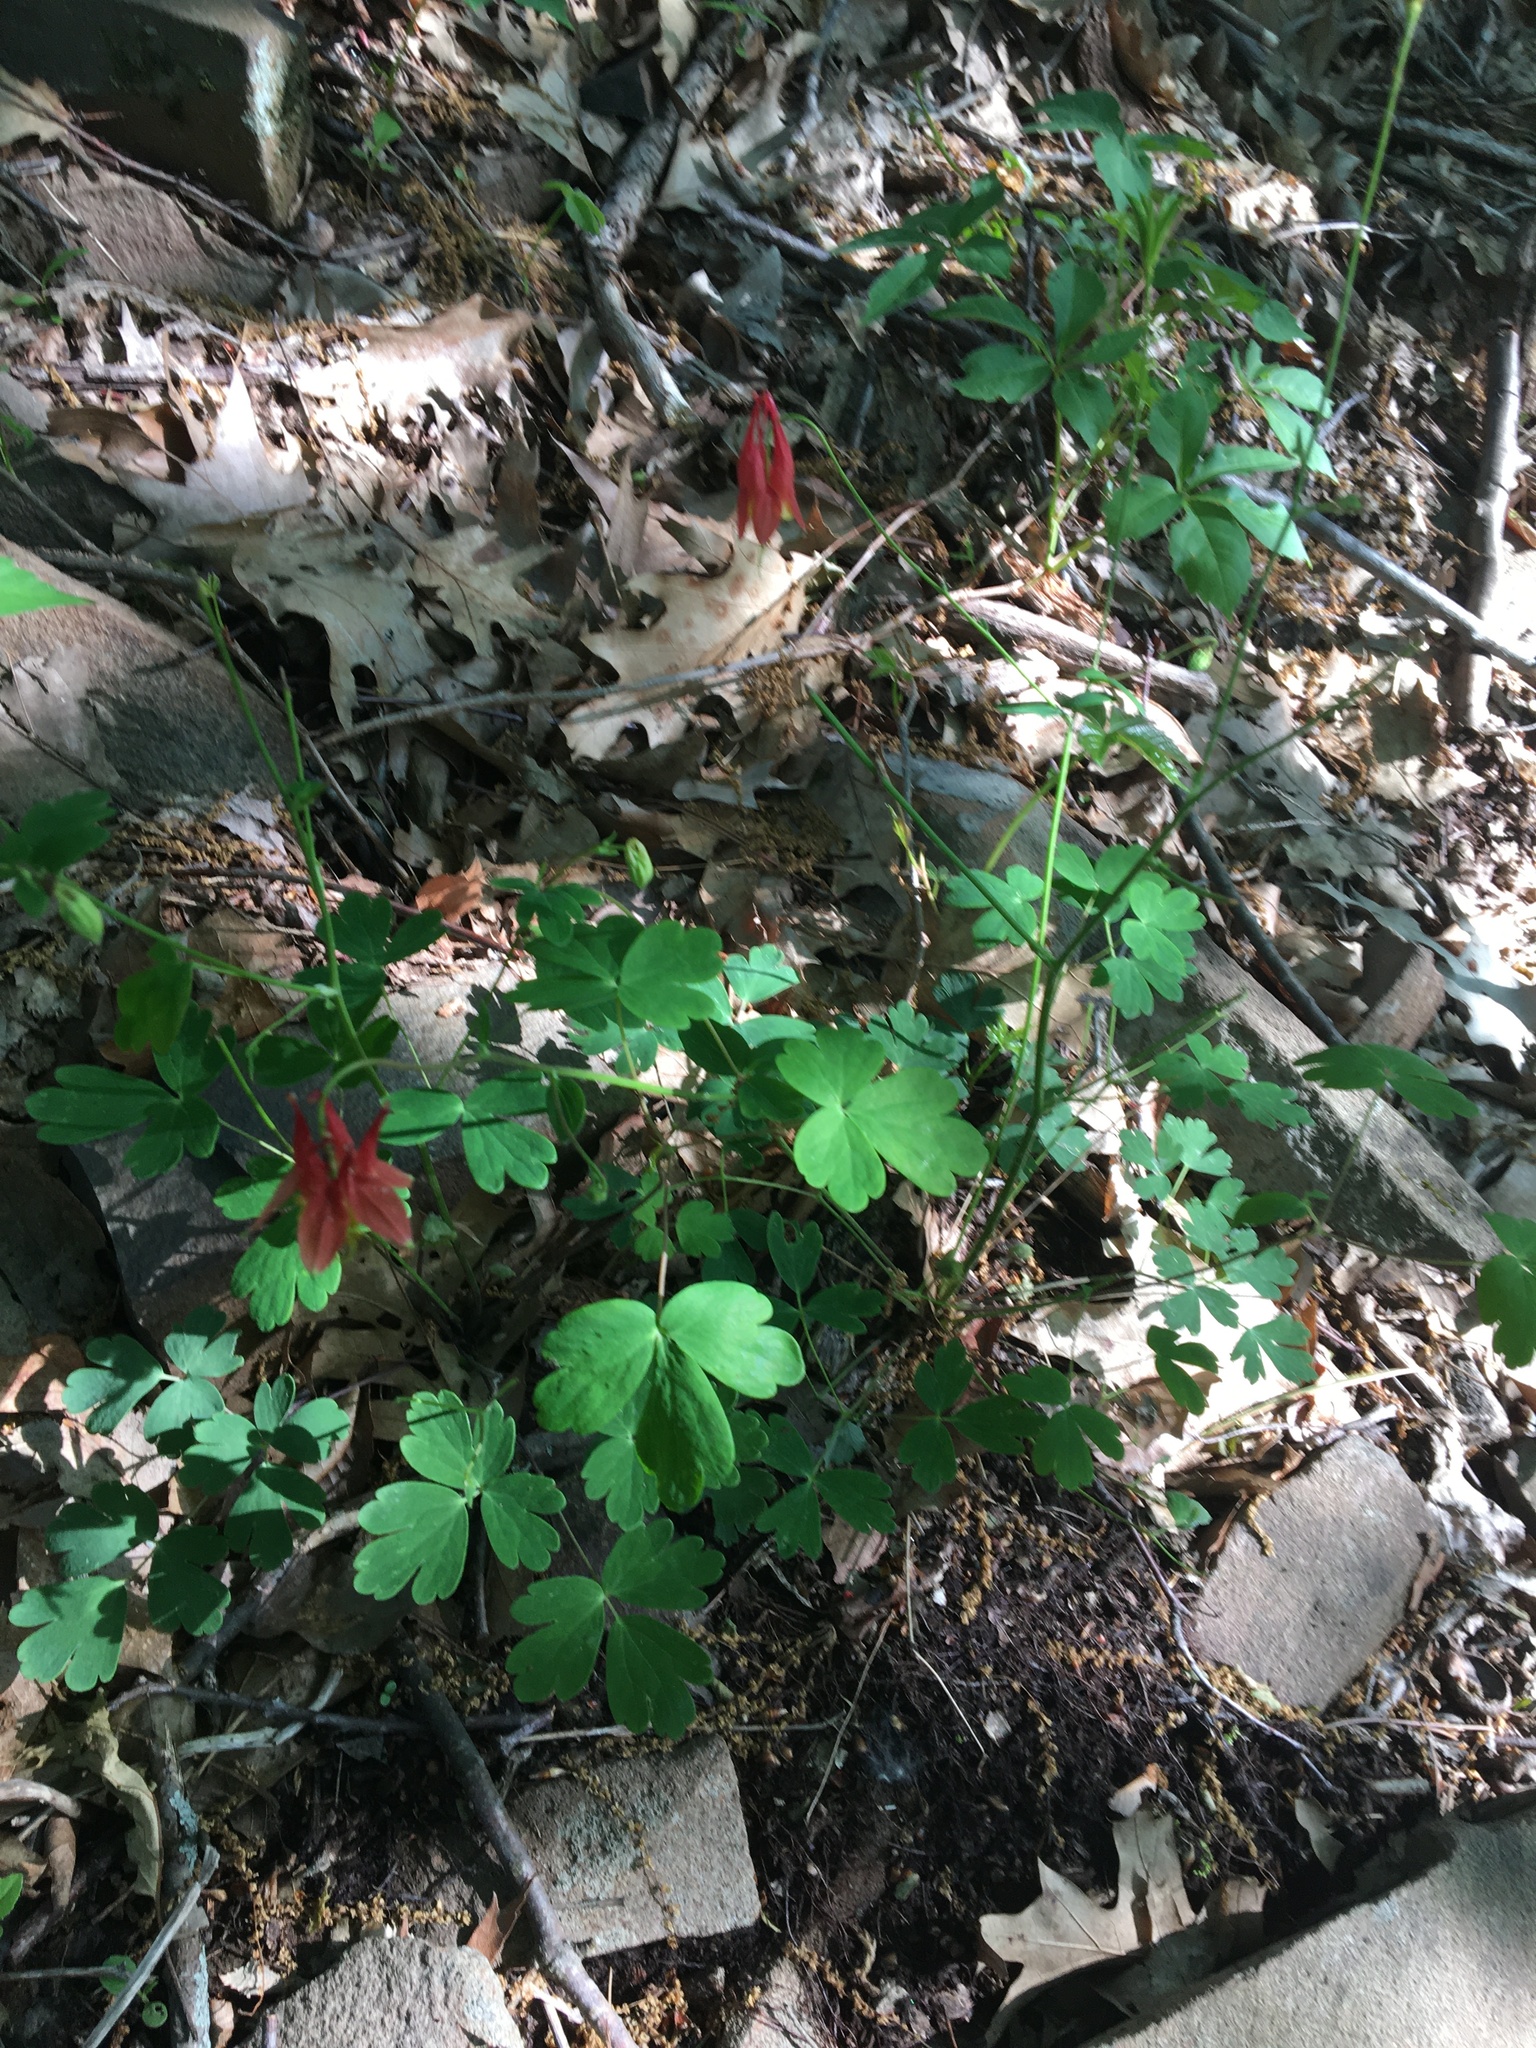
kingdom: Plantae
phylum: Tracheophyta
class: Magnoliopsida
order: Ranunculales
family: Ranunculaceae
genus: Aquilegia
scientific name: Aquilegia canadensis
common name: American columbine
